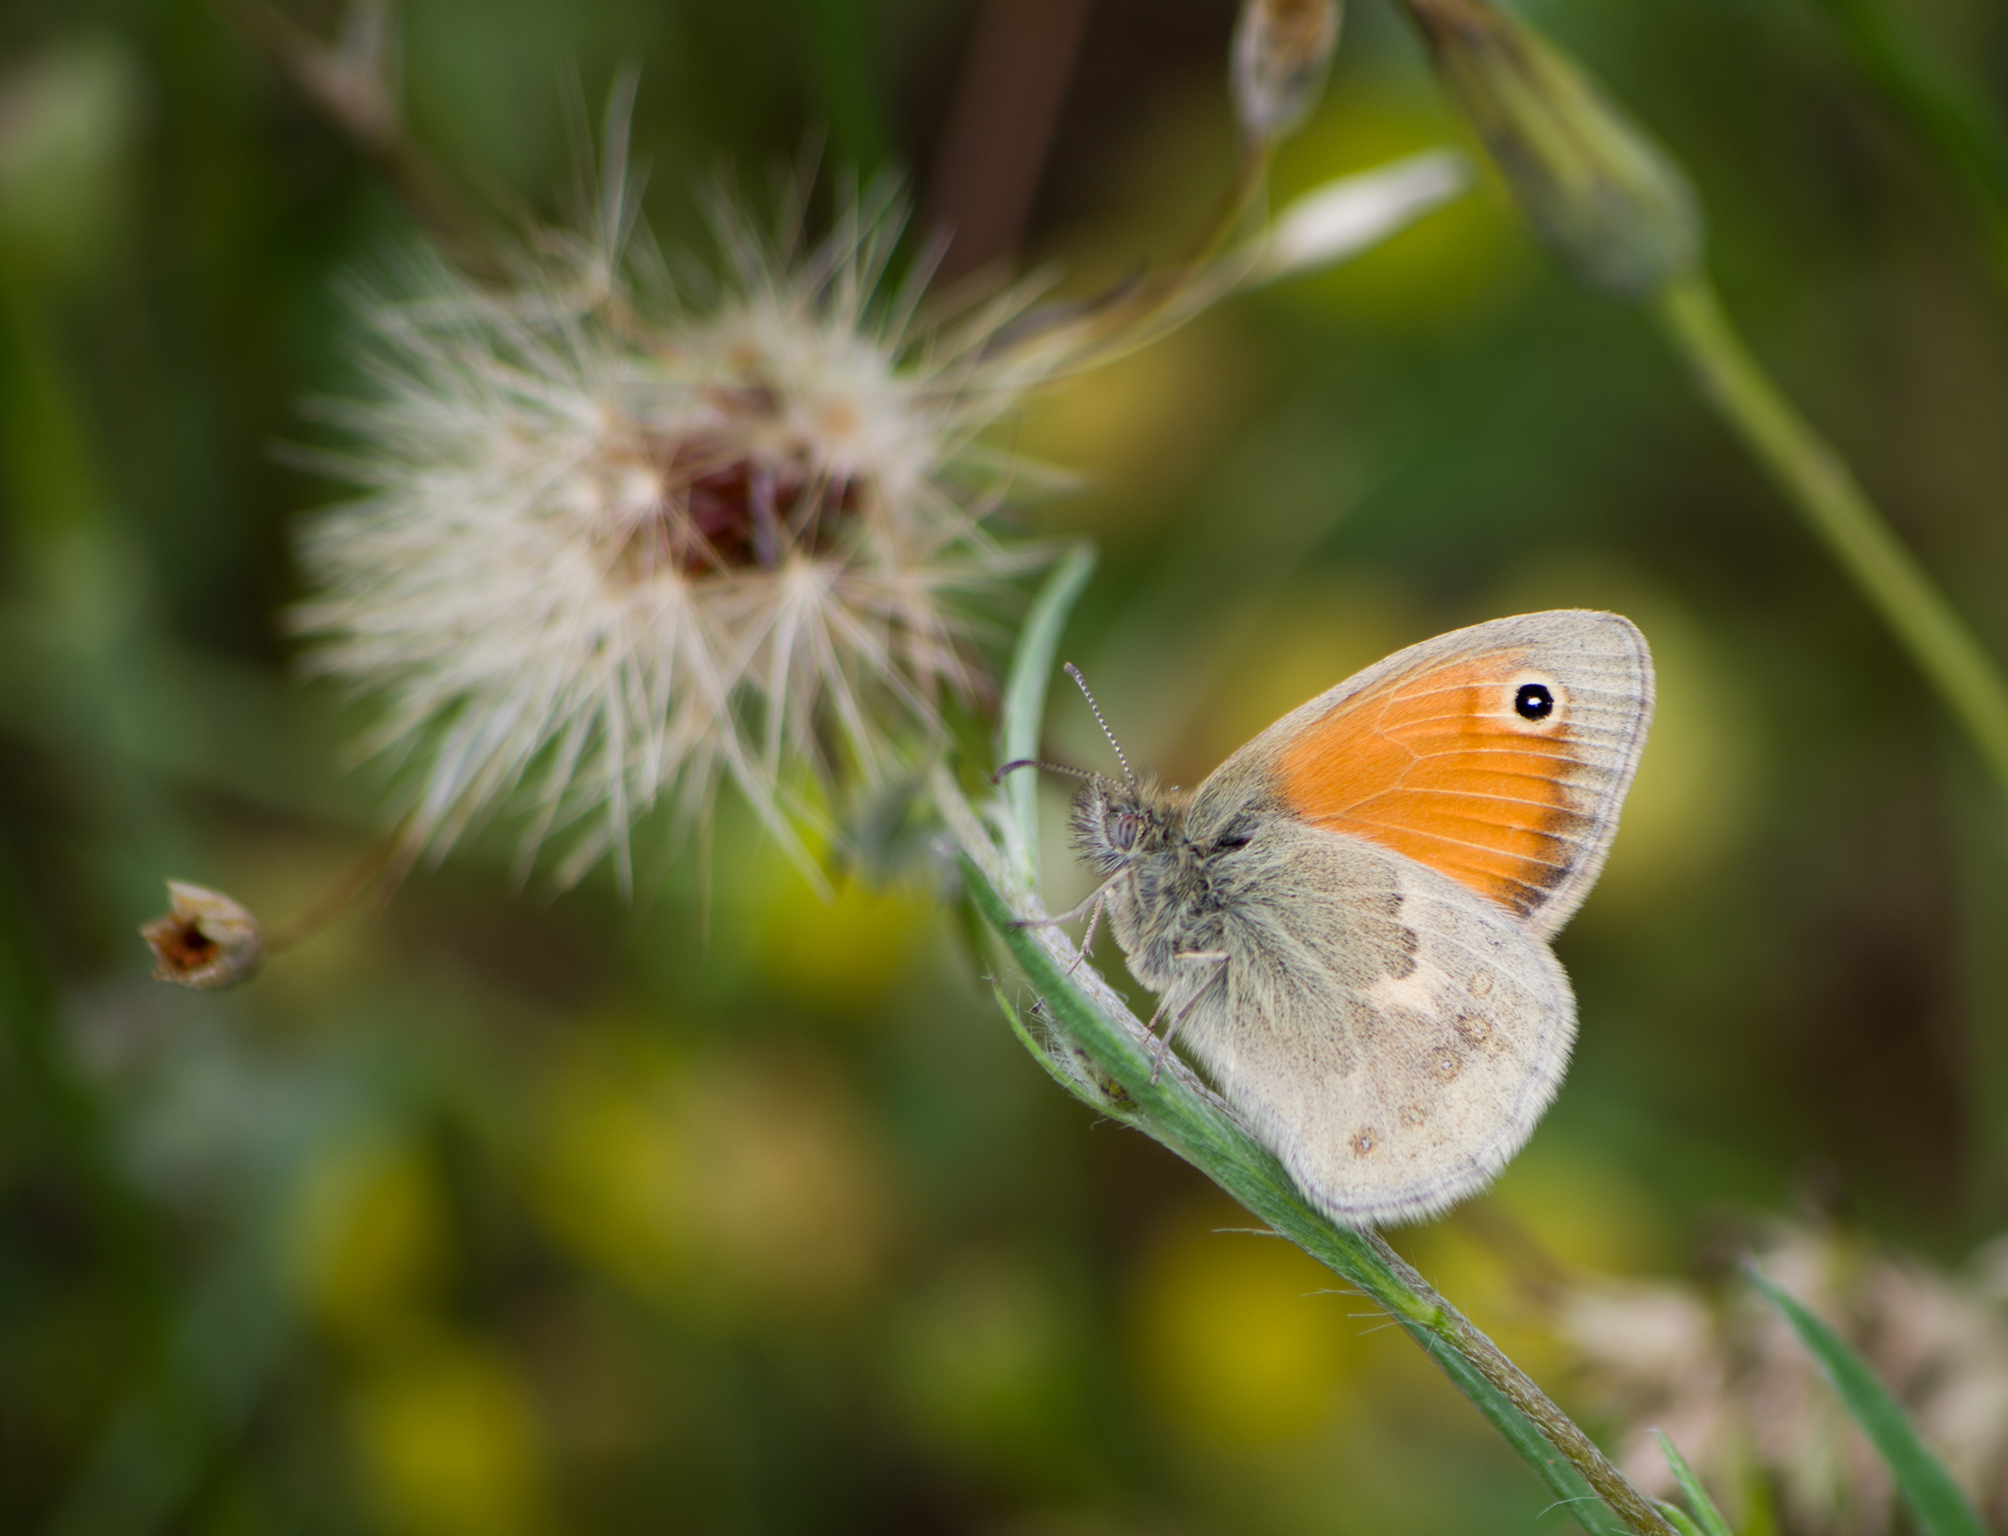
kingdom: Animalia
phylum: Arthropoda
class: Insecta
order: Lepidoptera
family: Nymphalidae
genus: Coenonympha
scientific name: Coenonympha pamphilus
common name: Small heath
